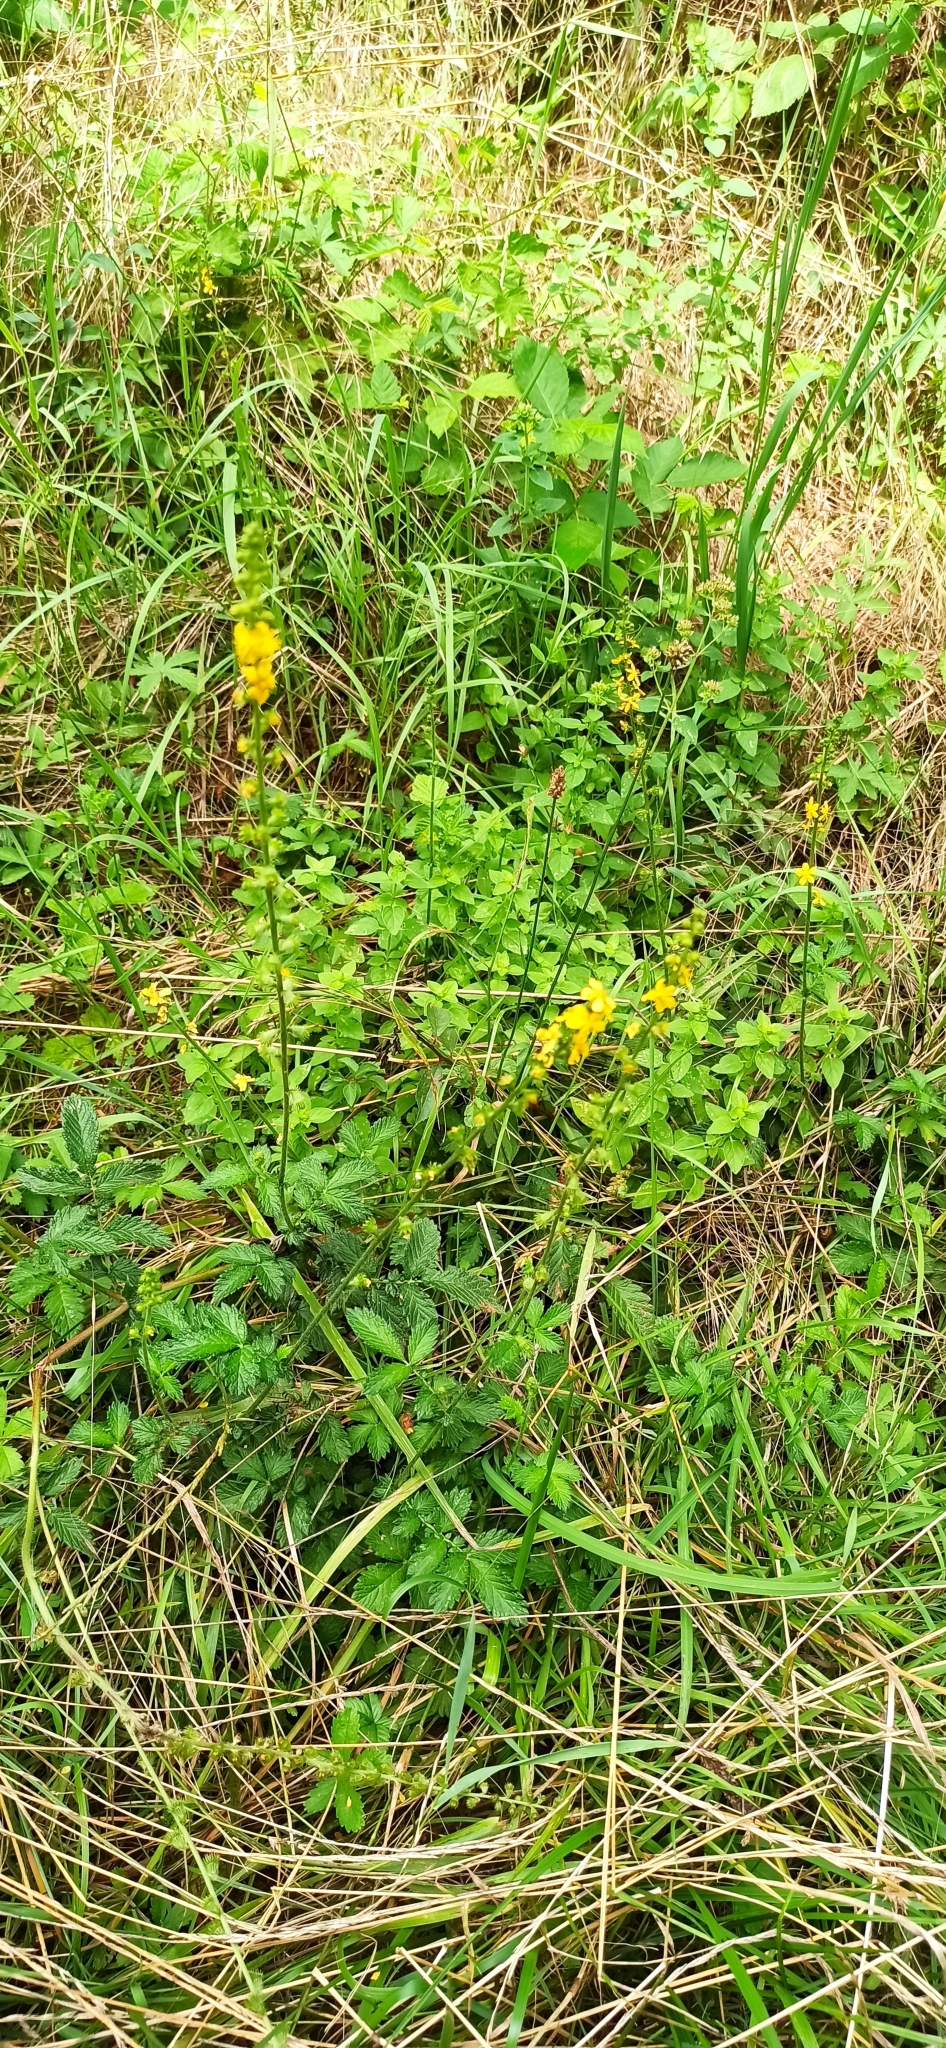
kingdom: Plantae
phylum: Tracheophyta
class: Magnoliopsida
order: Rosales
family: Rosaceae
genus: Agrimonia
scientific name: Agrimonia eupatoria
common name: Agrimony
